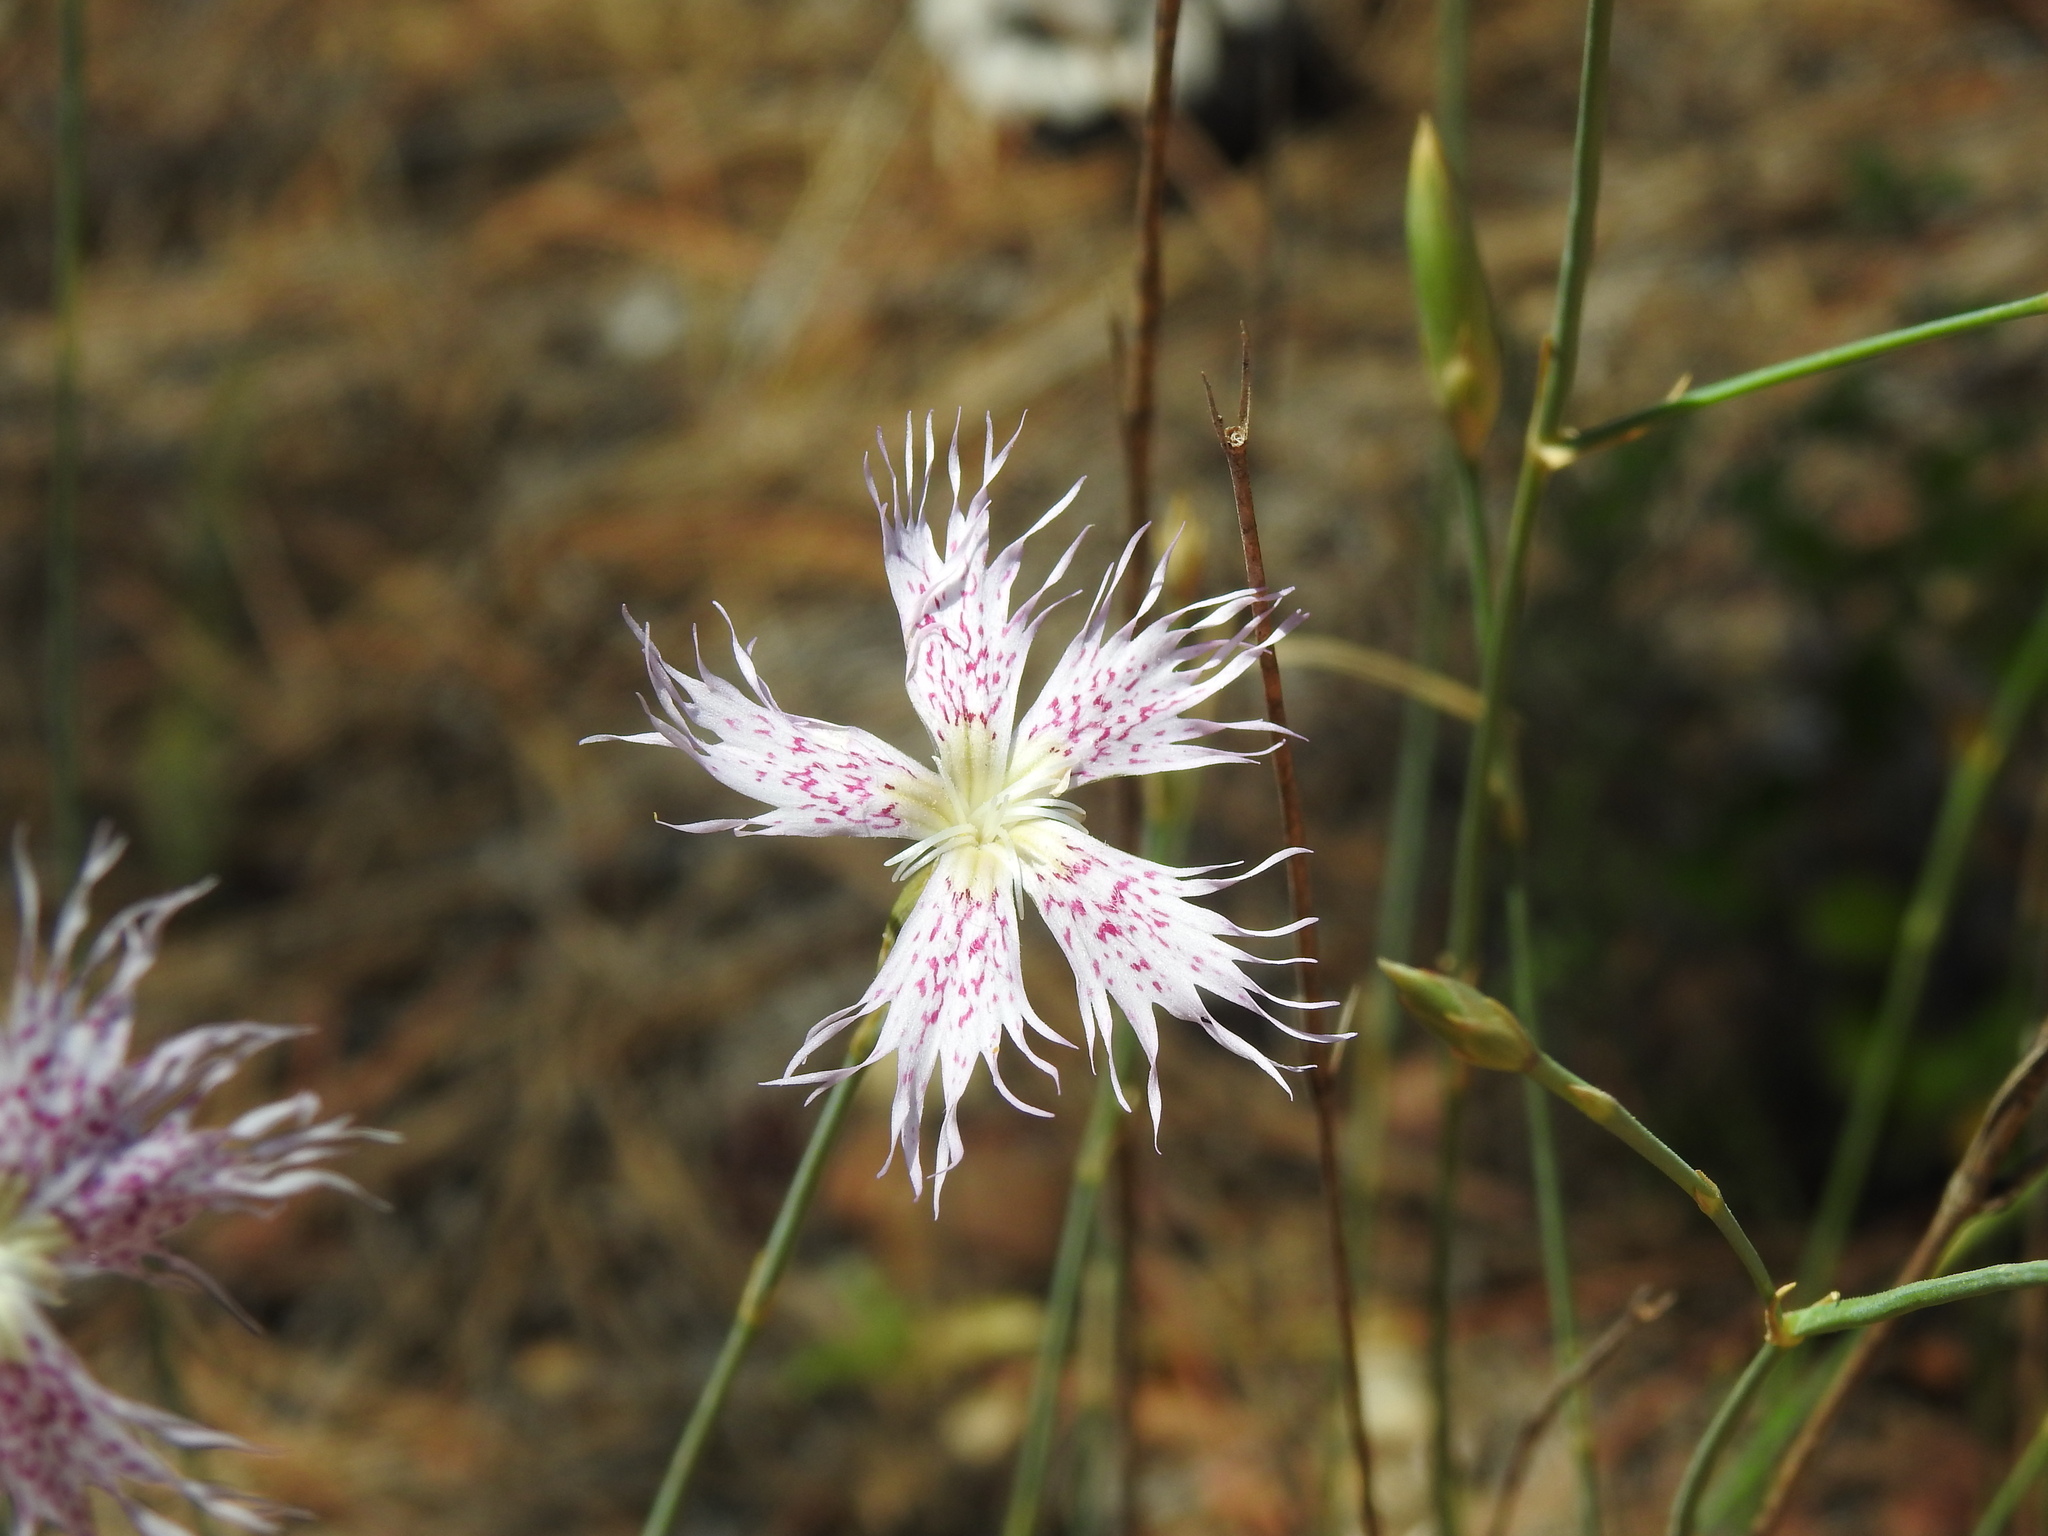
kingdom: Plantae
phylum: Tracheophyta
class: Magnoliopsida
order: Caryophyllales
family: Caryophyllaceae
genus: Dianthus
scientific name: Dianthus broteri
